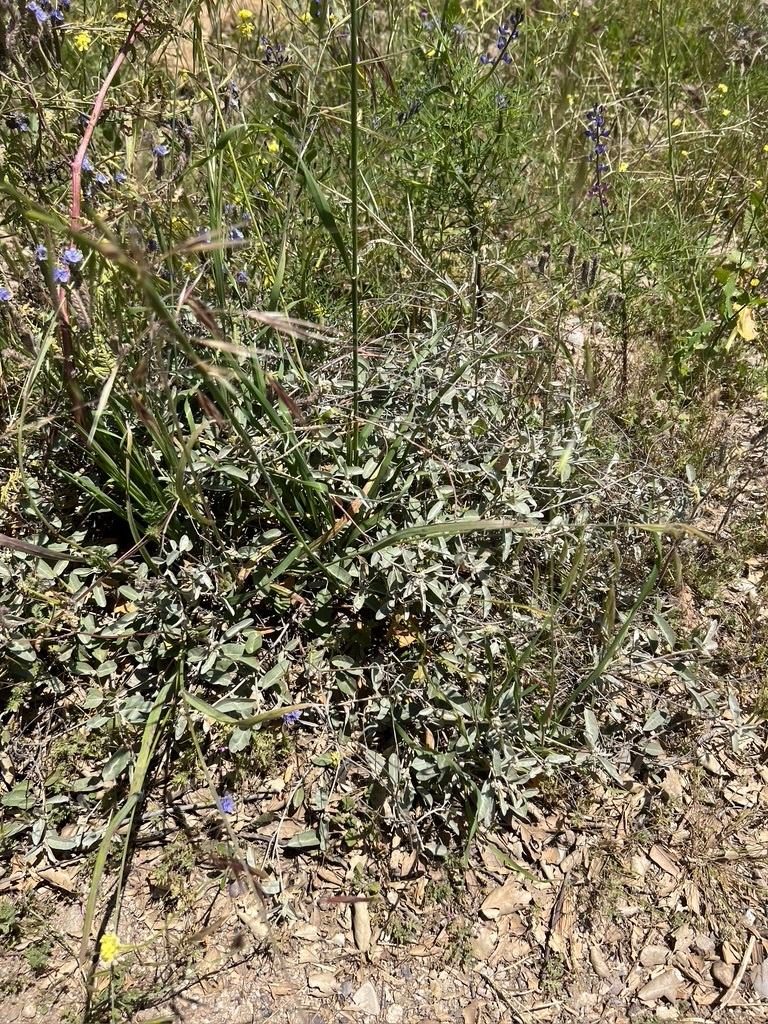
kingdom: Plantae
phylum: Tracheophyta
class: Magnoliopsida
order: Malpighiales
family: Euphorbiaceae
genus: Croton
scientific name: Croton californicus
